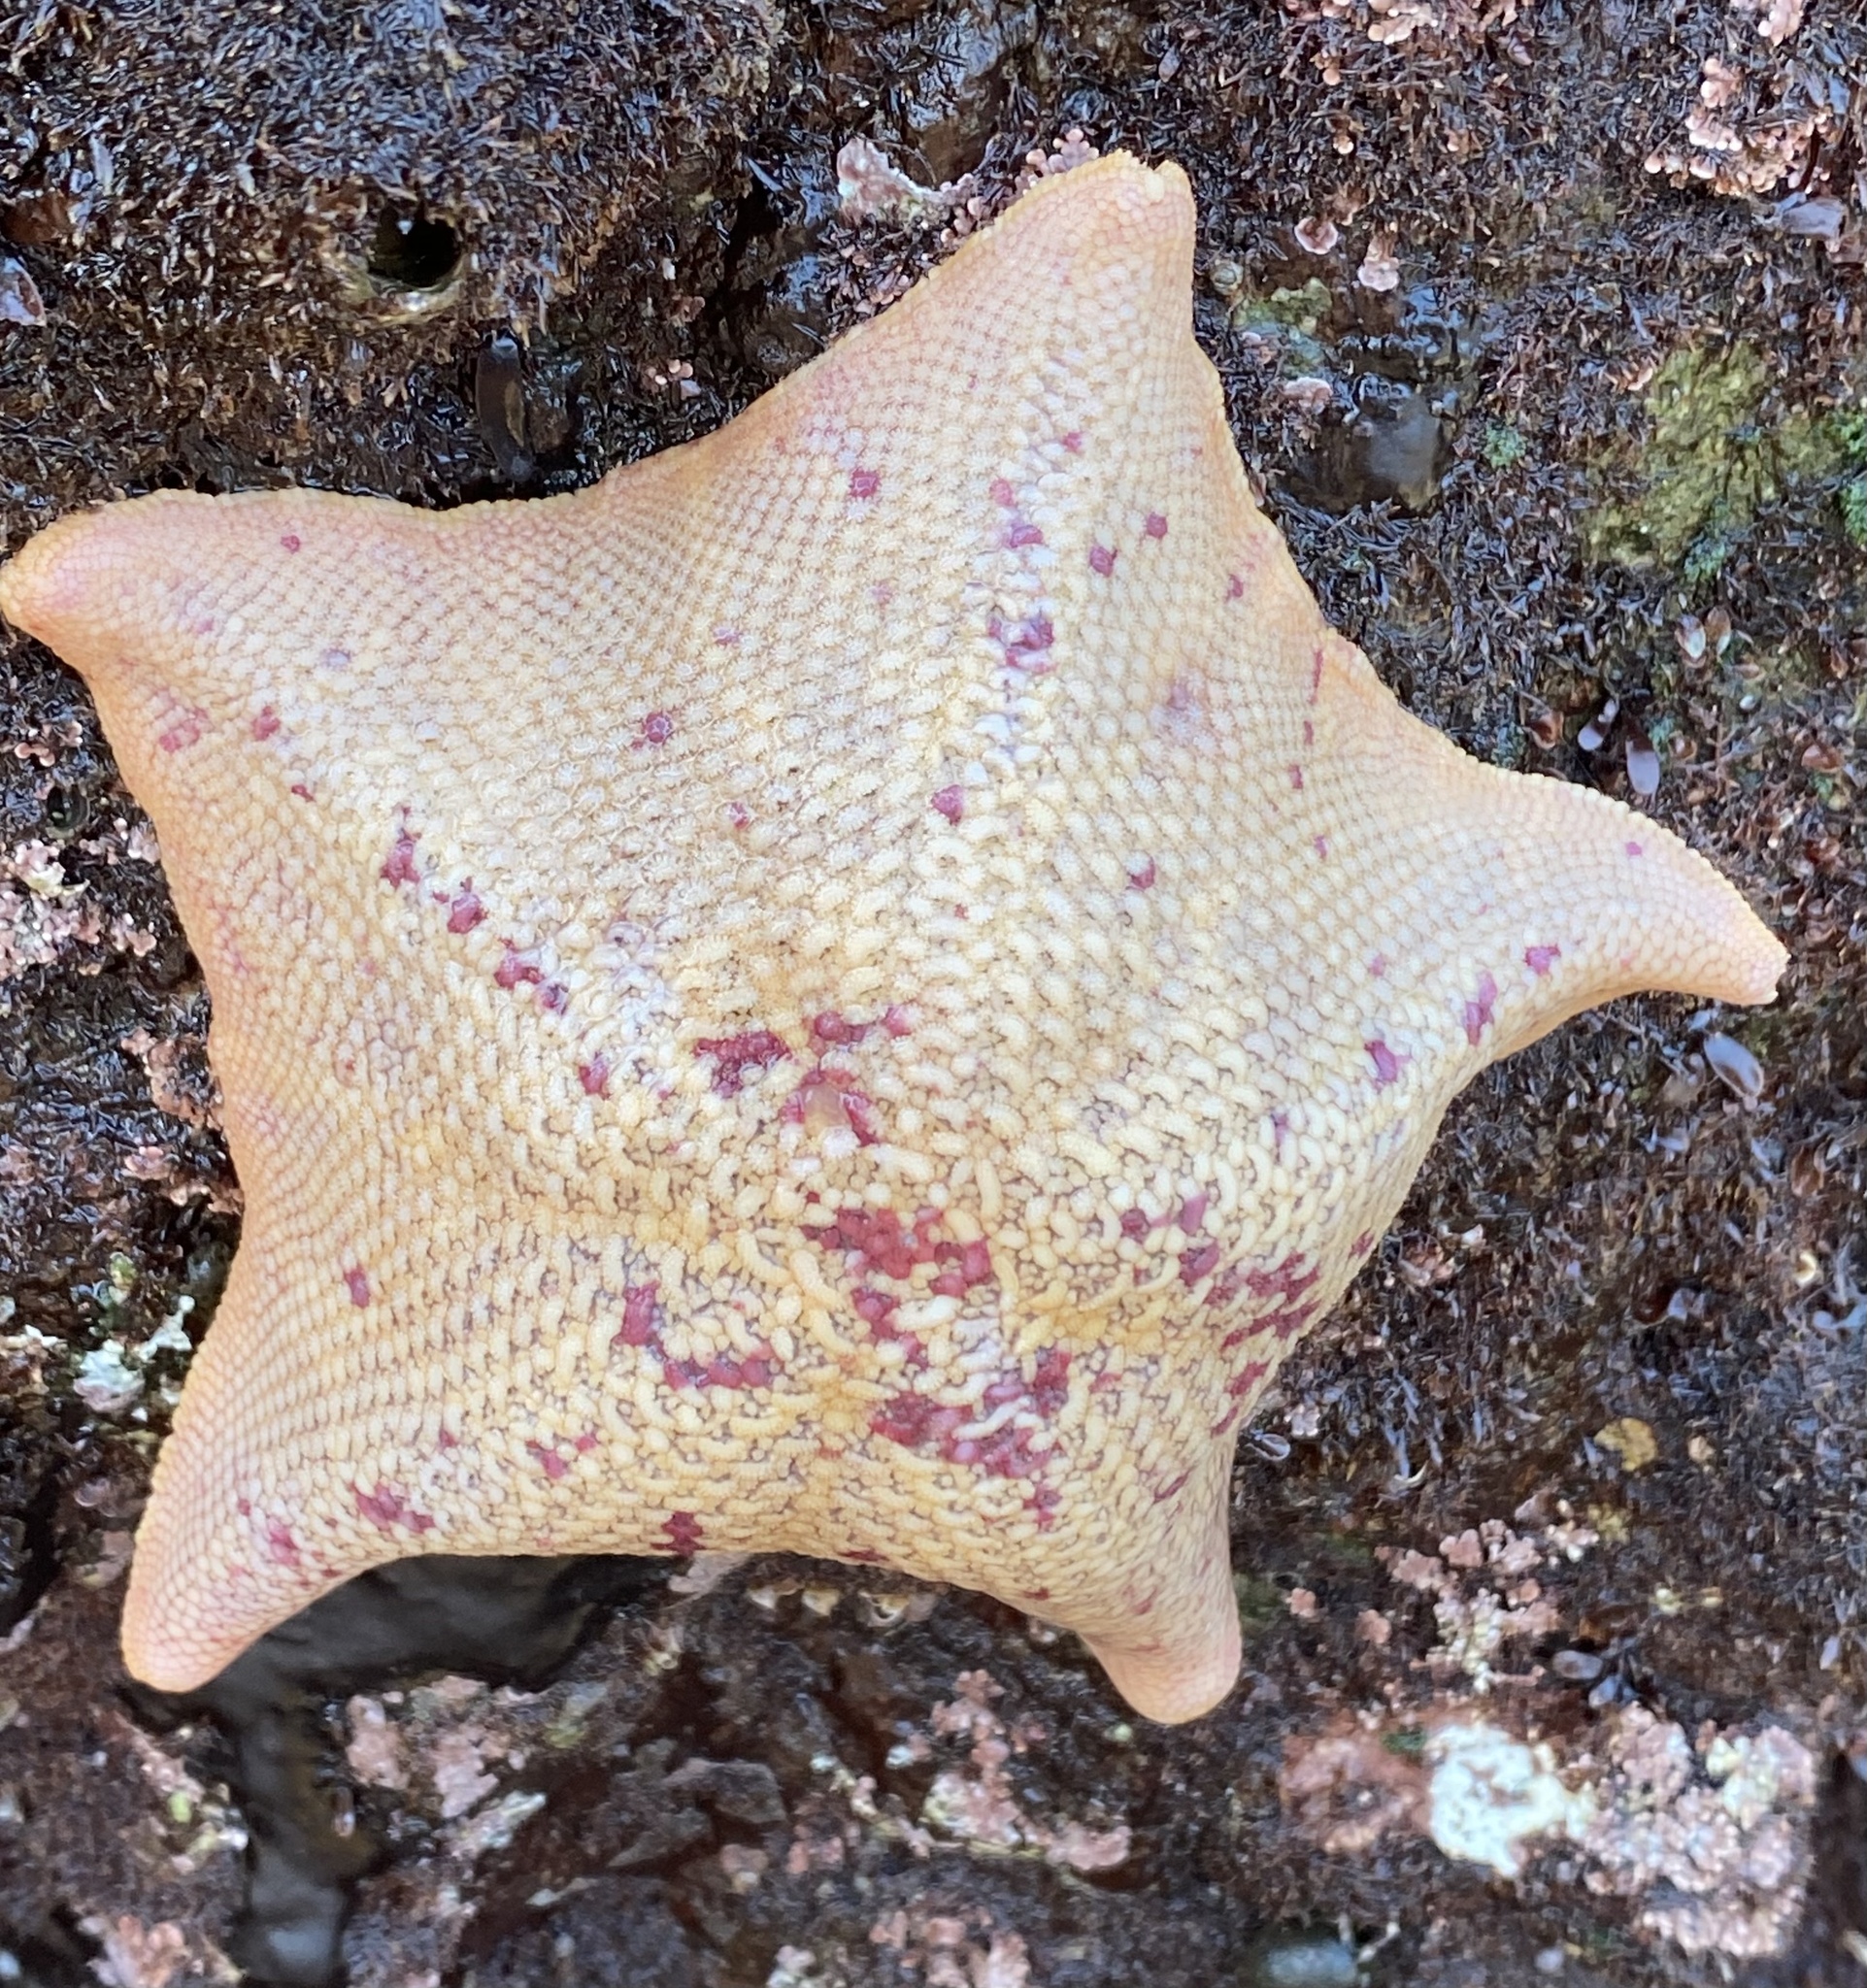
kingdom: Animalia
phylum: Echinodermata
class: Asteroidea
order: Valvatida
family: Asterinidae
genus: Patiria
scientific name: Patiria miniata
